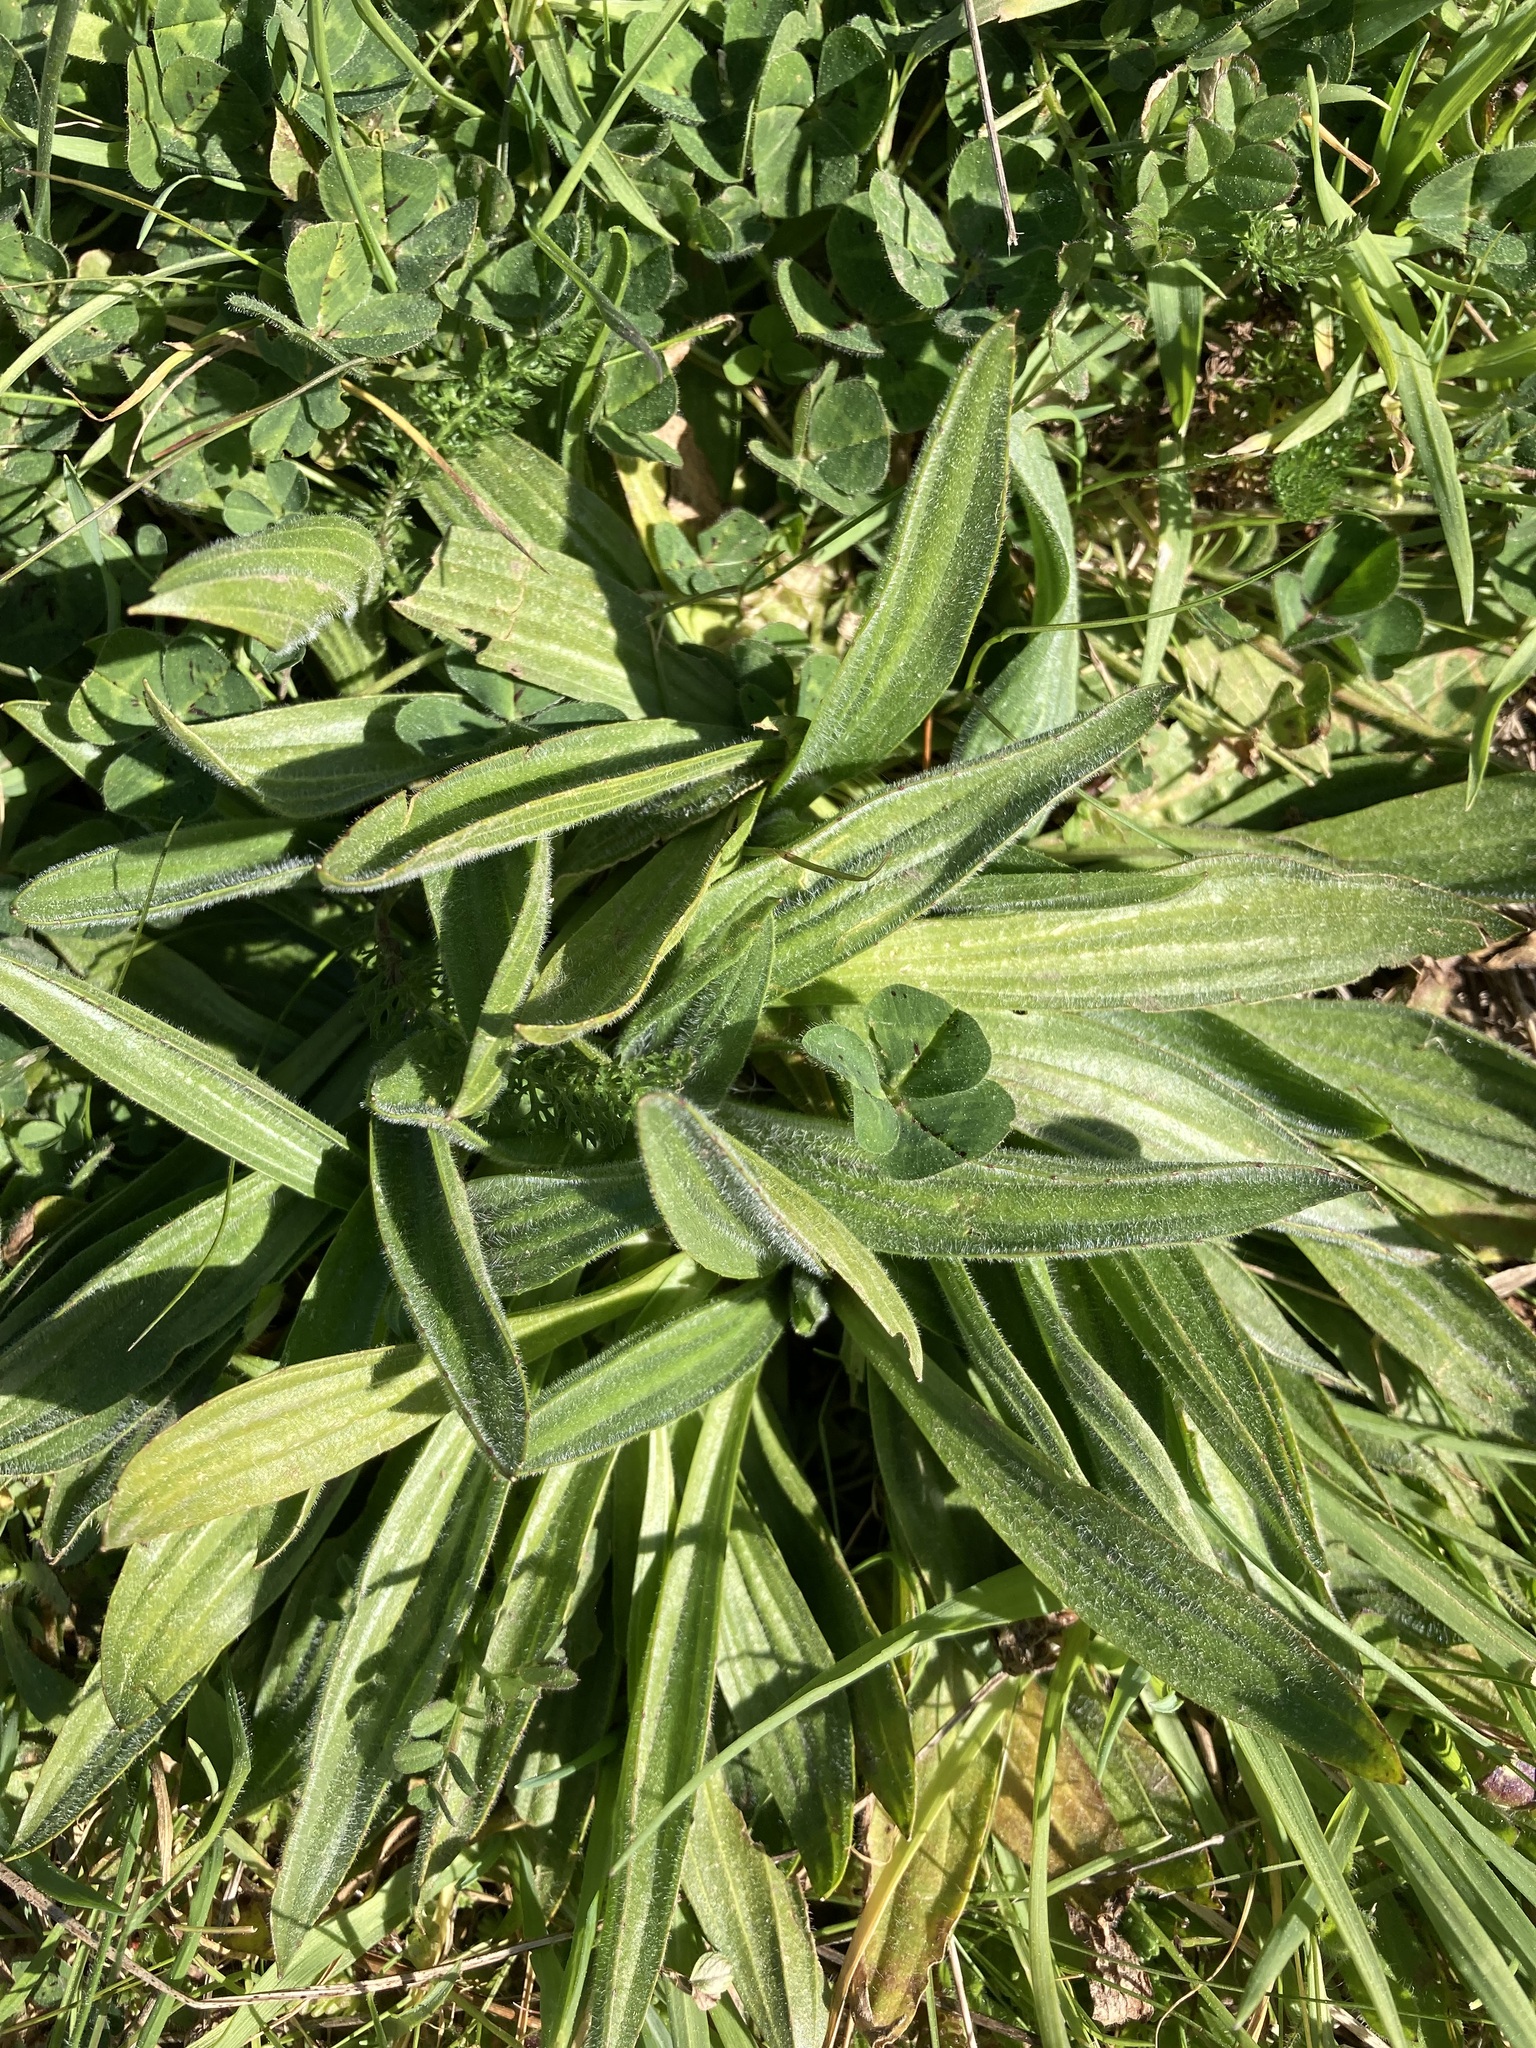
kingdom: Plantae
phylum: Tracheophyta
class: Magnoliopsida
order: Lamiales
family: Plantaginaceae
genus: Plantago
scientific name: Plantago lanceolata
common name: Ribwort plantain
